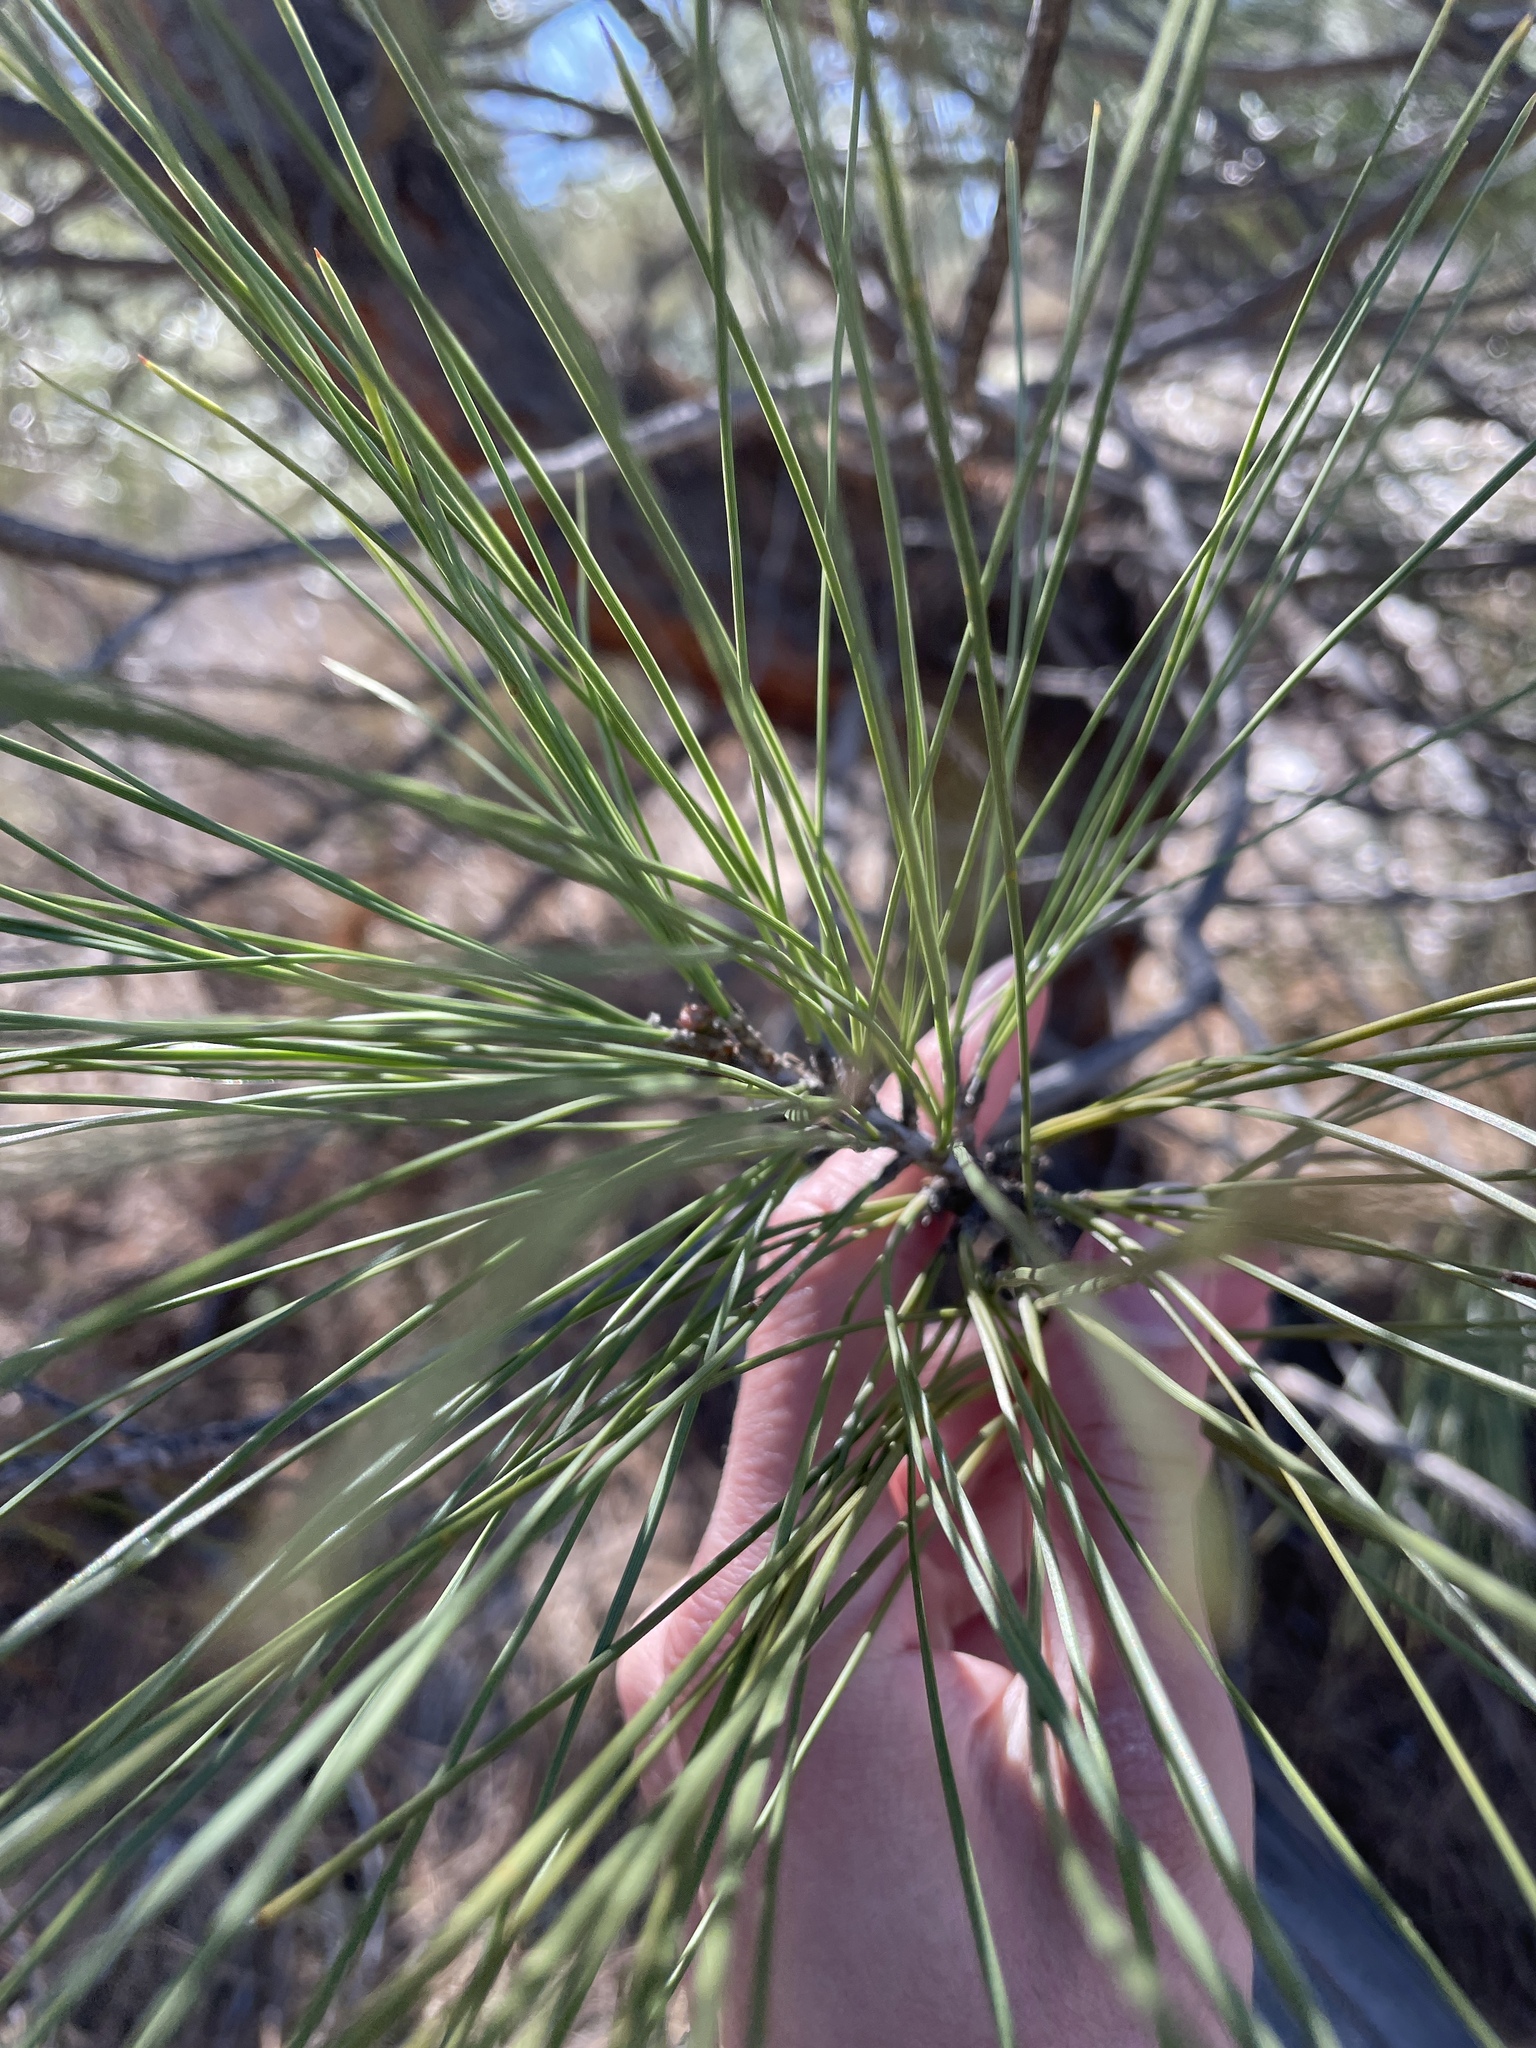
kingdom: Plantae
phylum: Tracheophyta
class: Pinopsida
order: Pinales
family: Pinaceae
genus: Pinus
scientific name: Pinus sabiniana
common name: Bull pine
